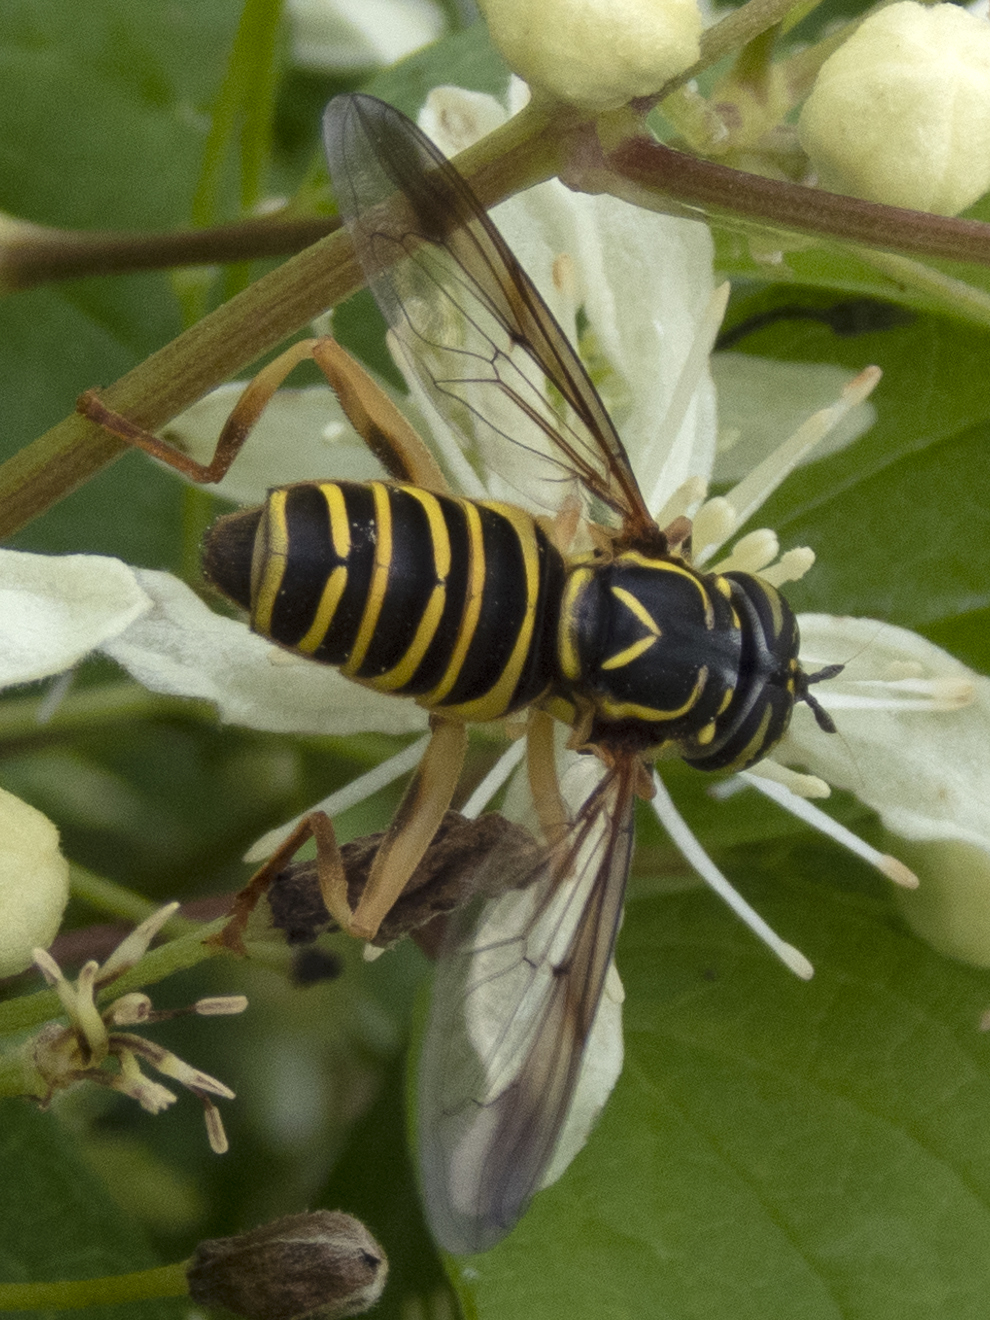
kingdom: Animalia
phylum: Arthropoda
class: Insecta
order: Diptera
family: Syrphidae
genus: Spilomyia
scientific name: Spilomyia longicornis
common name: Eastern hornet fly
